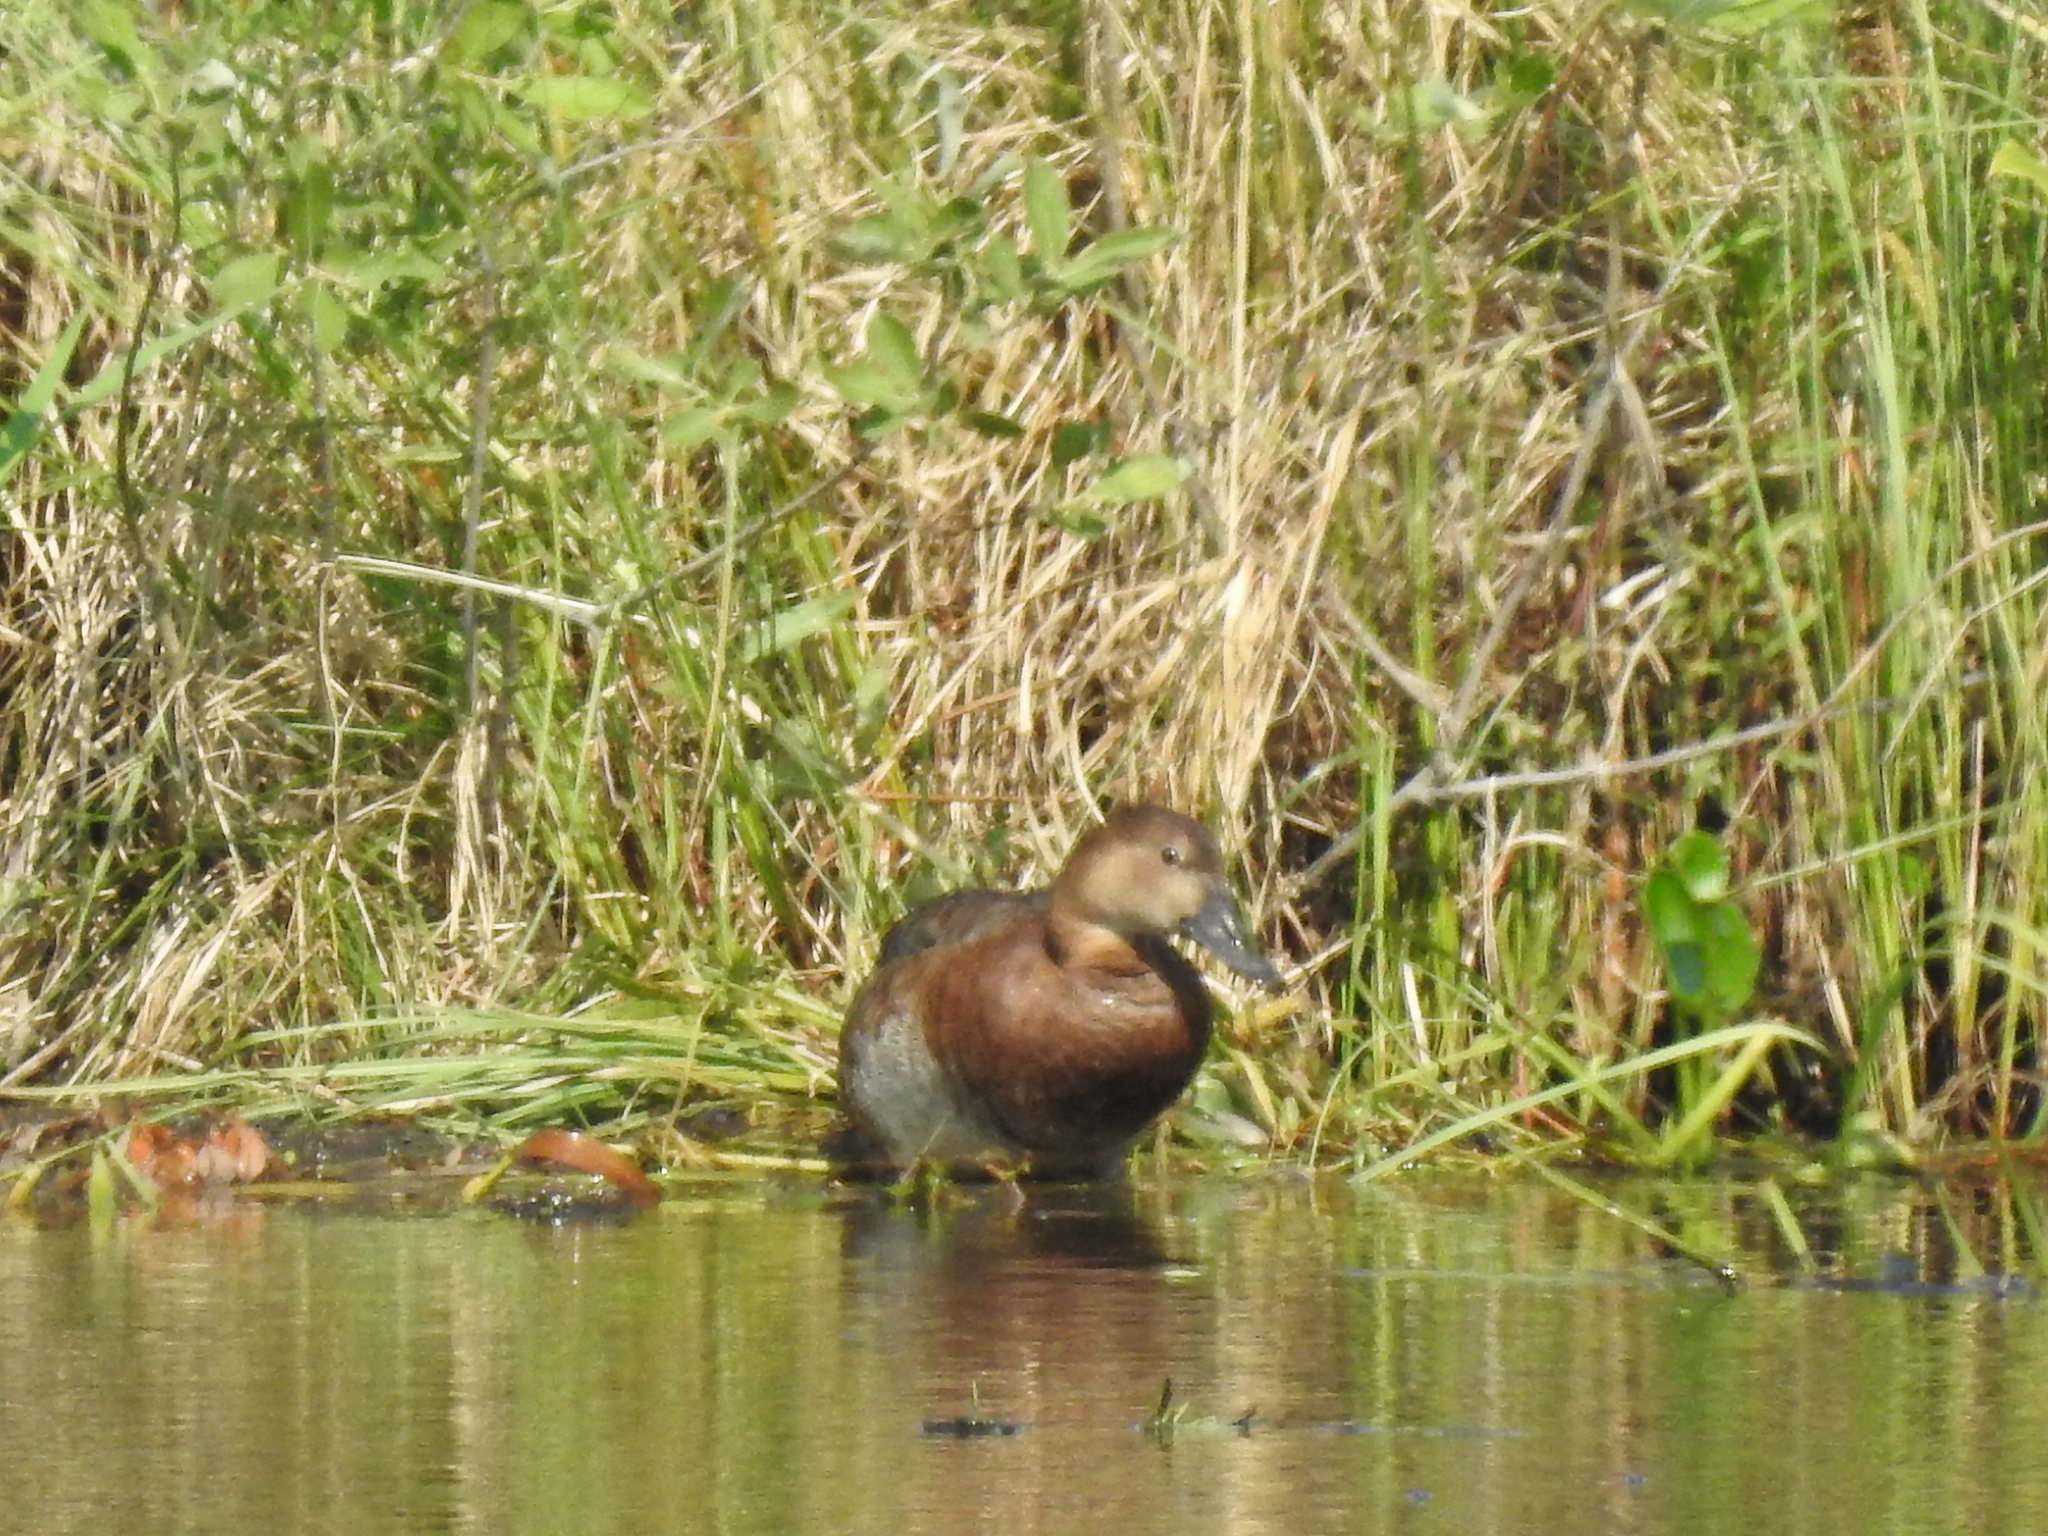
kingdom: Animalia
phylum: Chordata
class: Aves
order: Anseriformes
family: Anatidae
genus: Aythya
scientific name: Aythya ferina
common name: Common pochard
